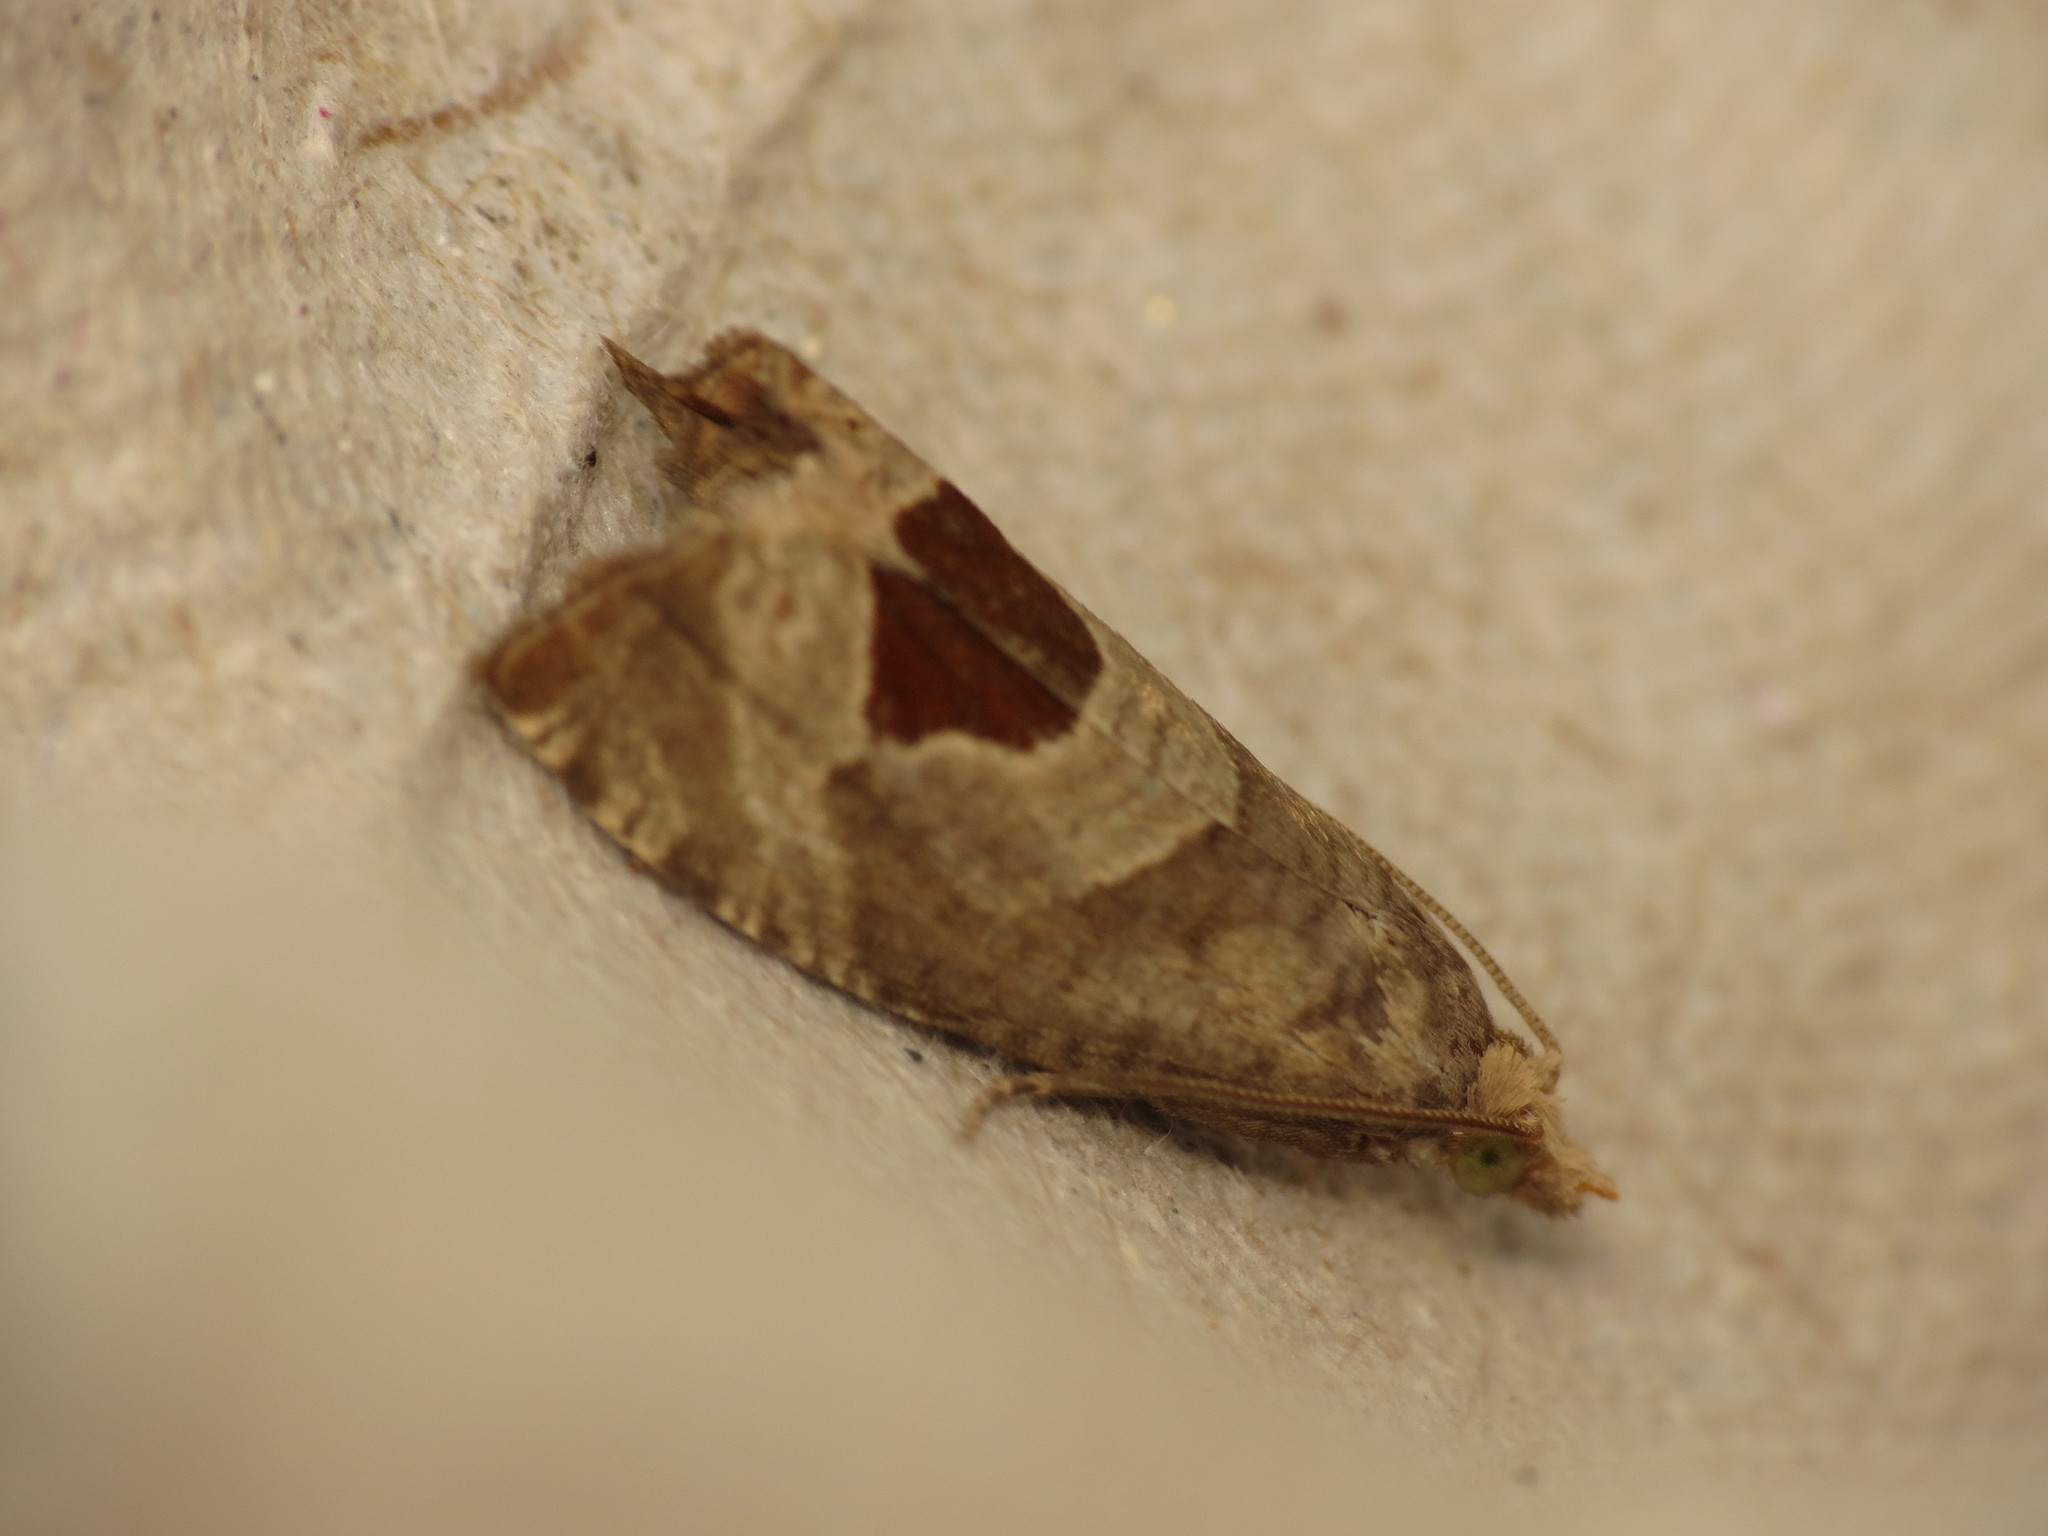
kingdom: Animalia
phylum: Arthropoda
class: Insecta
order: Lepidoptera
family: Tortricidae
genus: Notocelia
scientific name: Notocelia uddmanniana
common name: Bramble shoot moth
